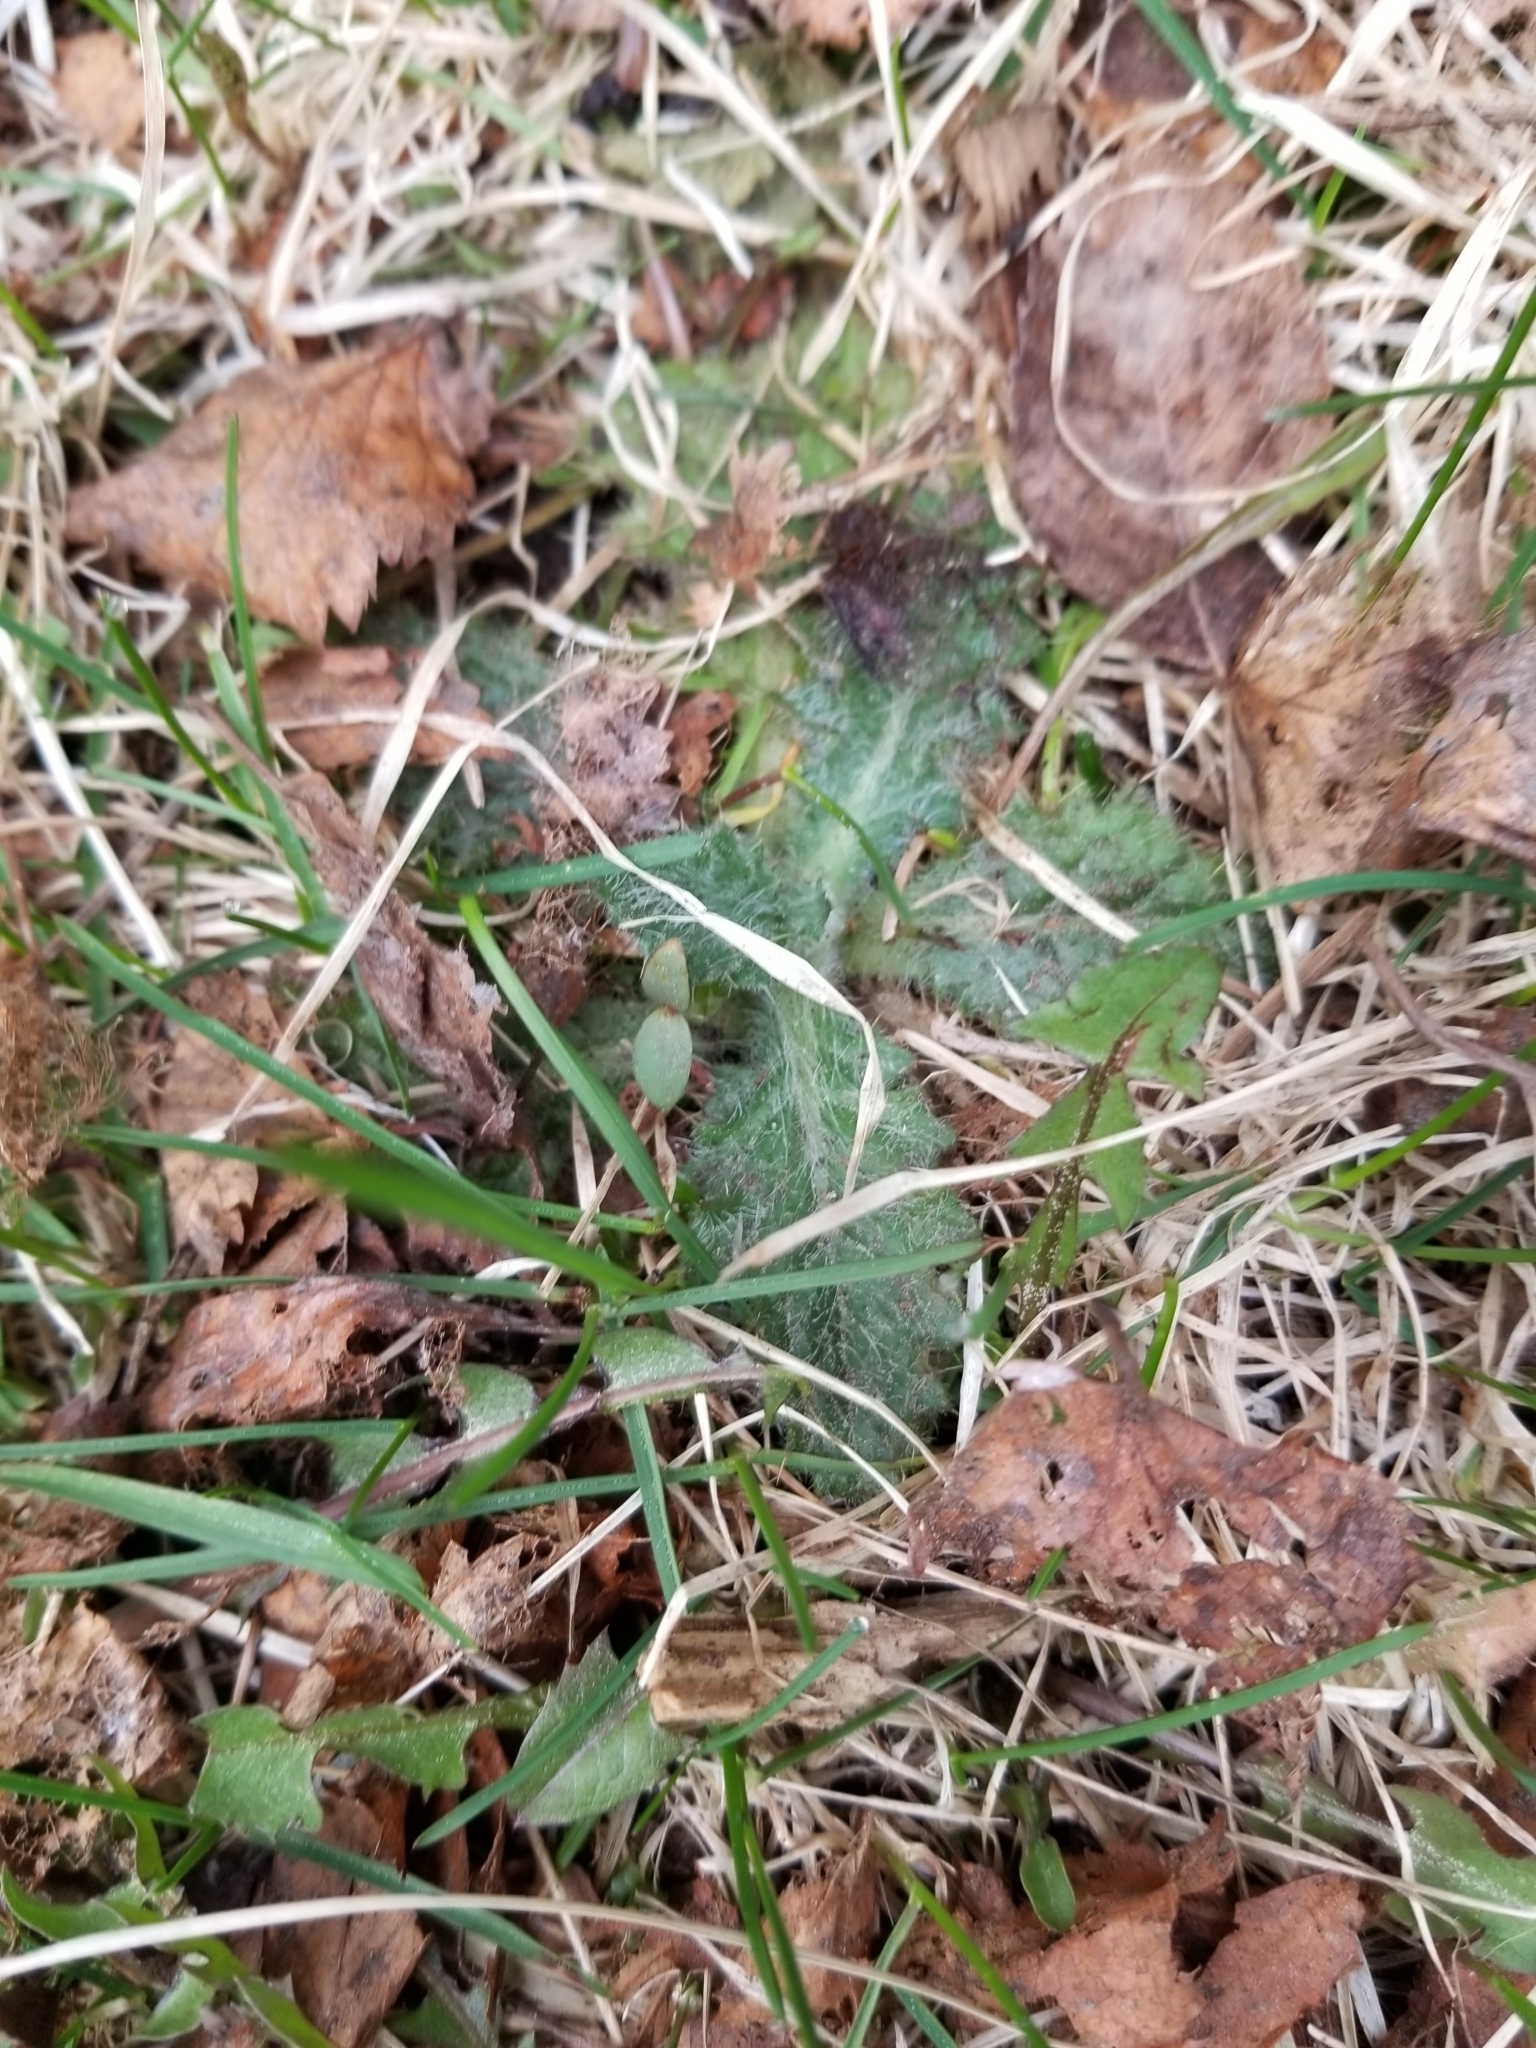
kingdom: Plantae
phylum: Tracheophyta
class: Magnoliopsida
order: Asterales
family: Asteraceae
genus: Cirsium
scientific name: Cirsium vulgare
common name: Bull thistle
